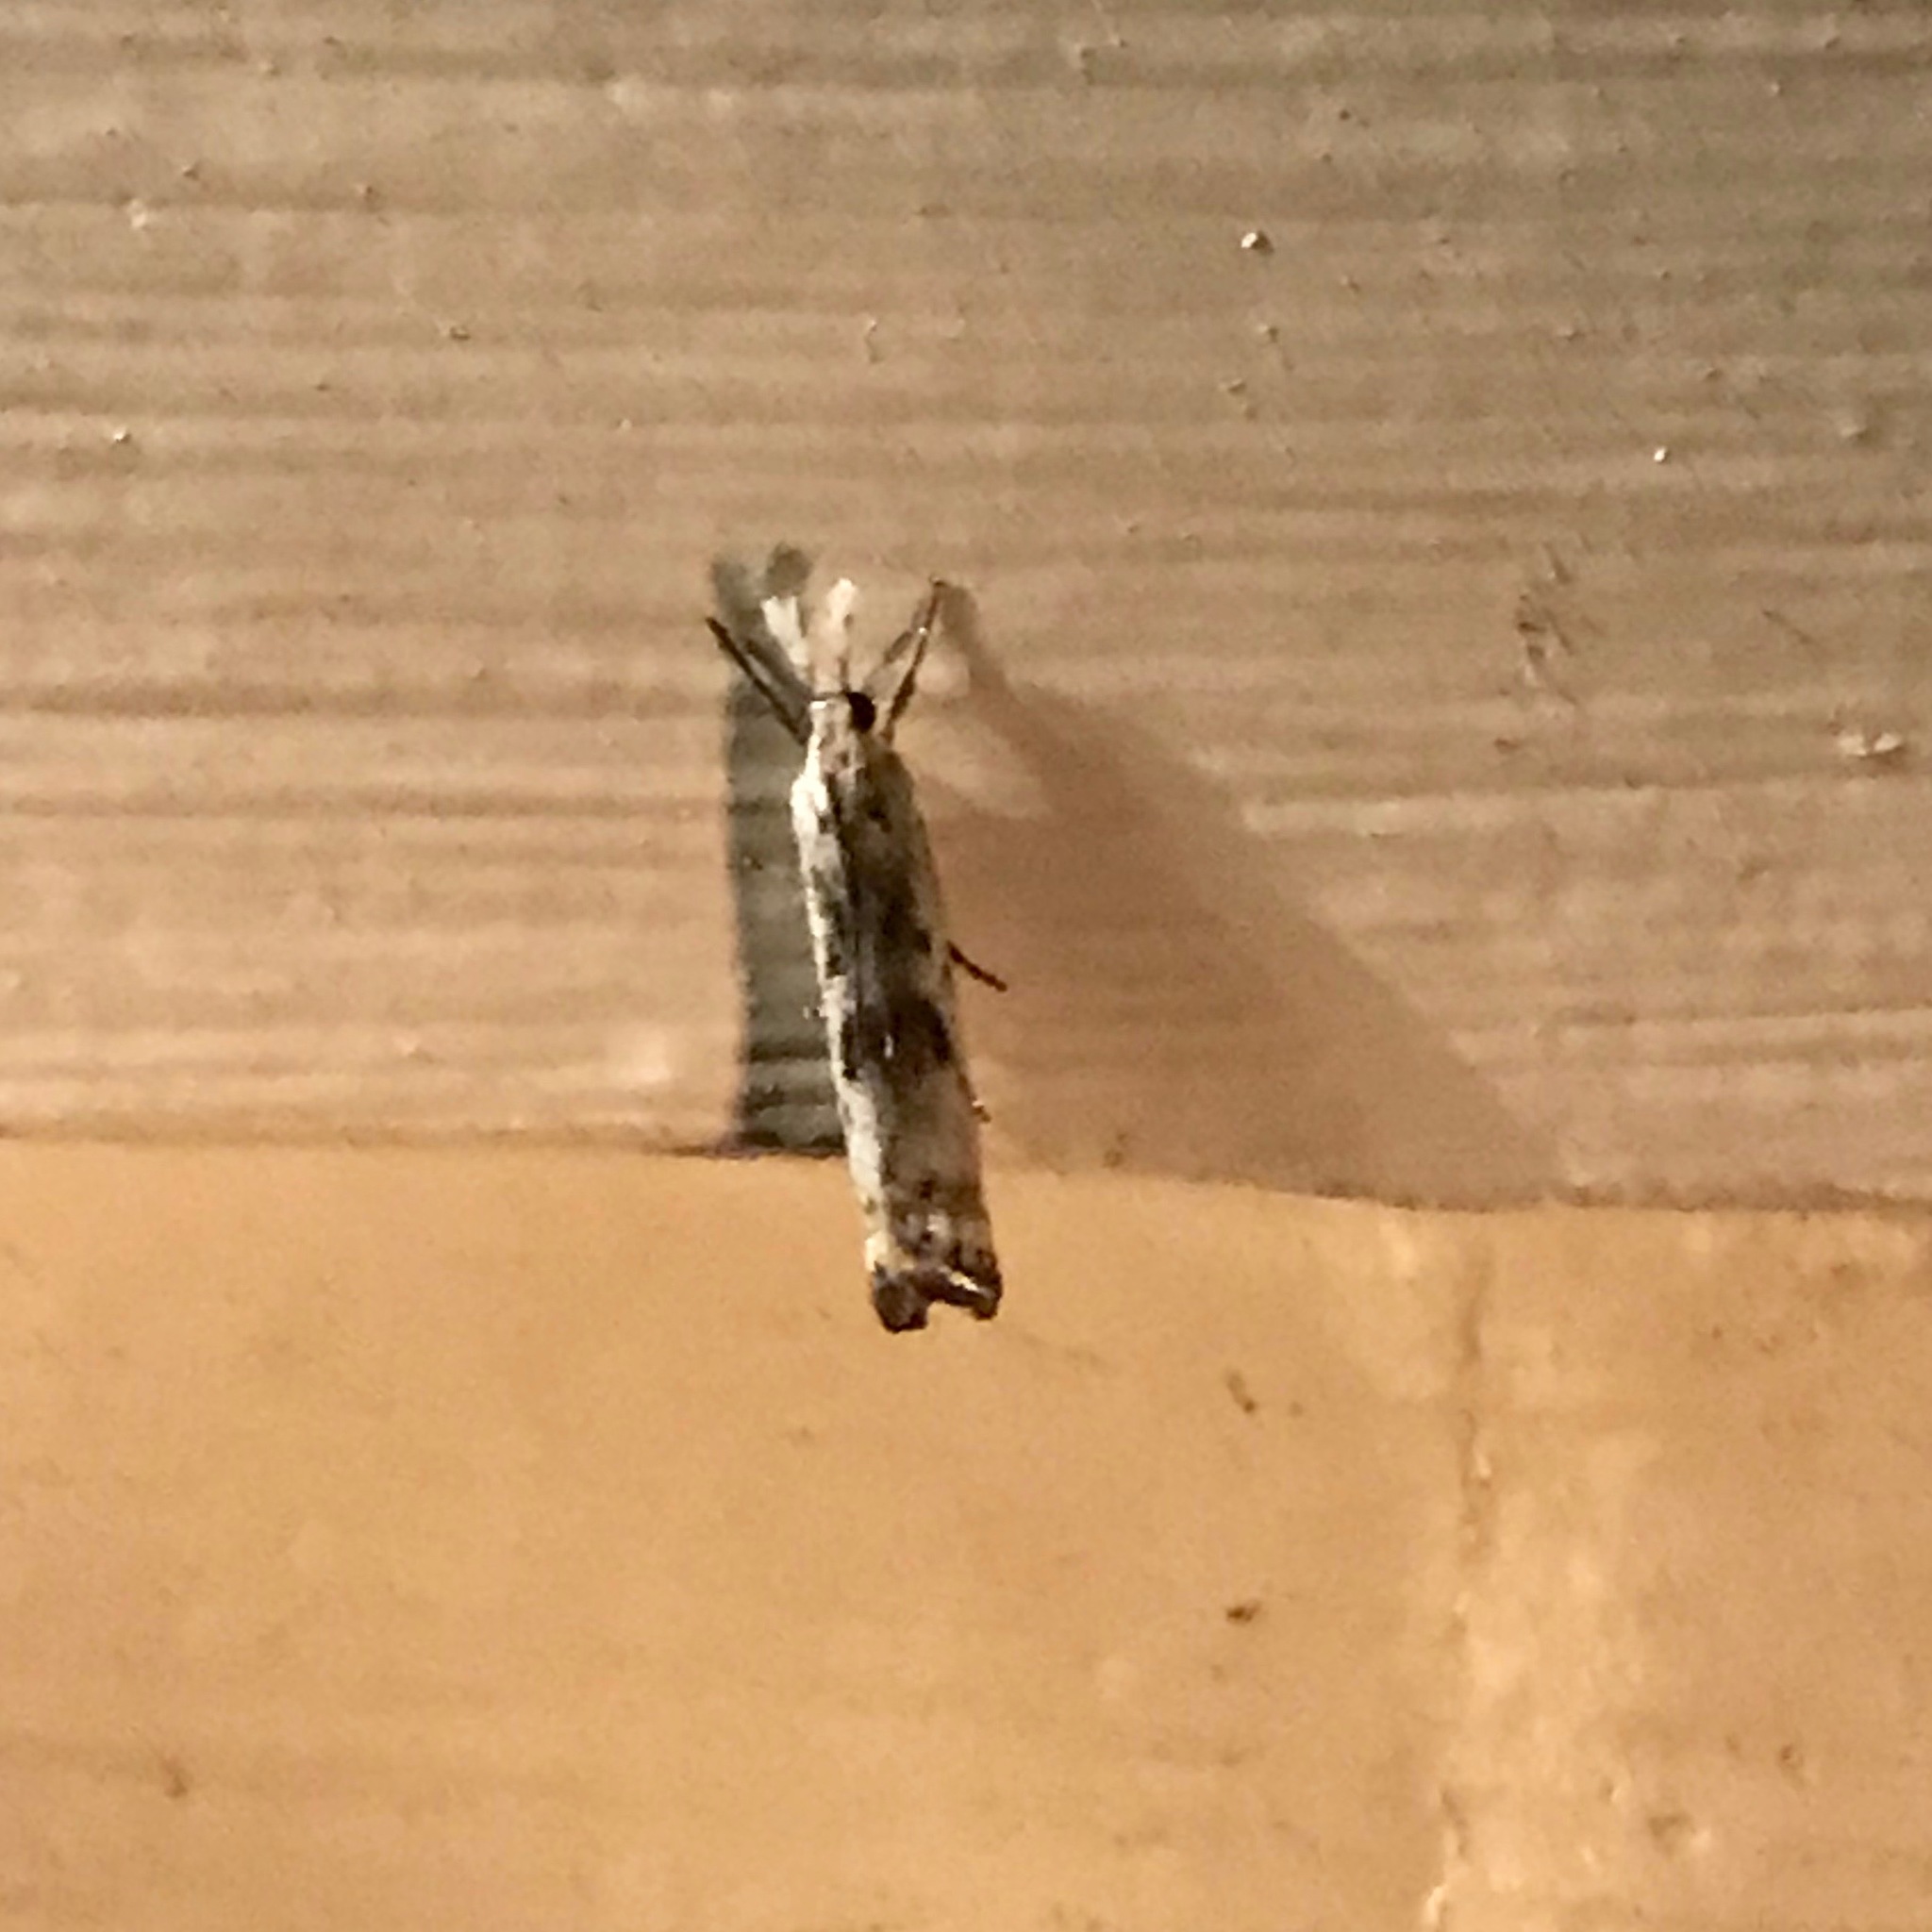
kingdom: Animalia
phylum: Arthropoda
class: Insecta
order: Lepidoptera
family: Crambidae
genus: Microcrambus
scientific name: Microcrambus elegans
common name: Elegant grass-veneer
